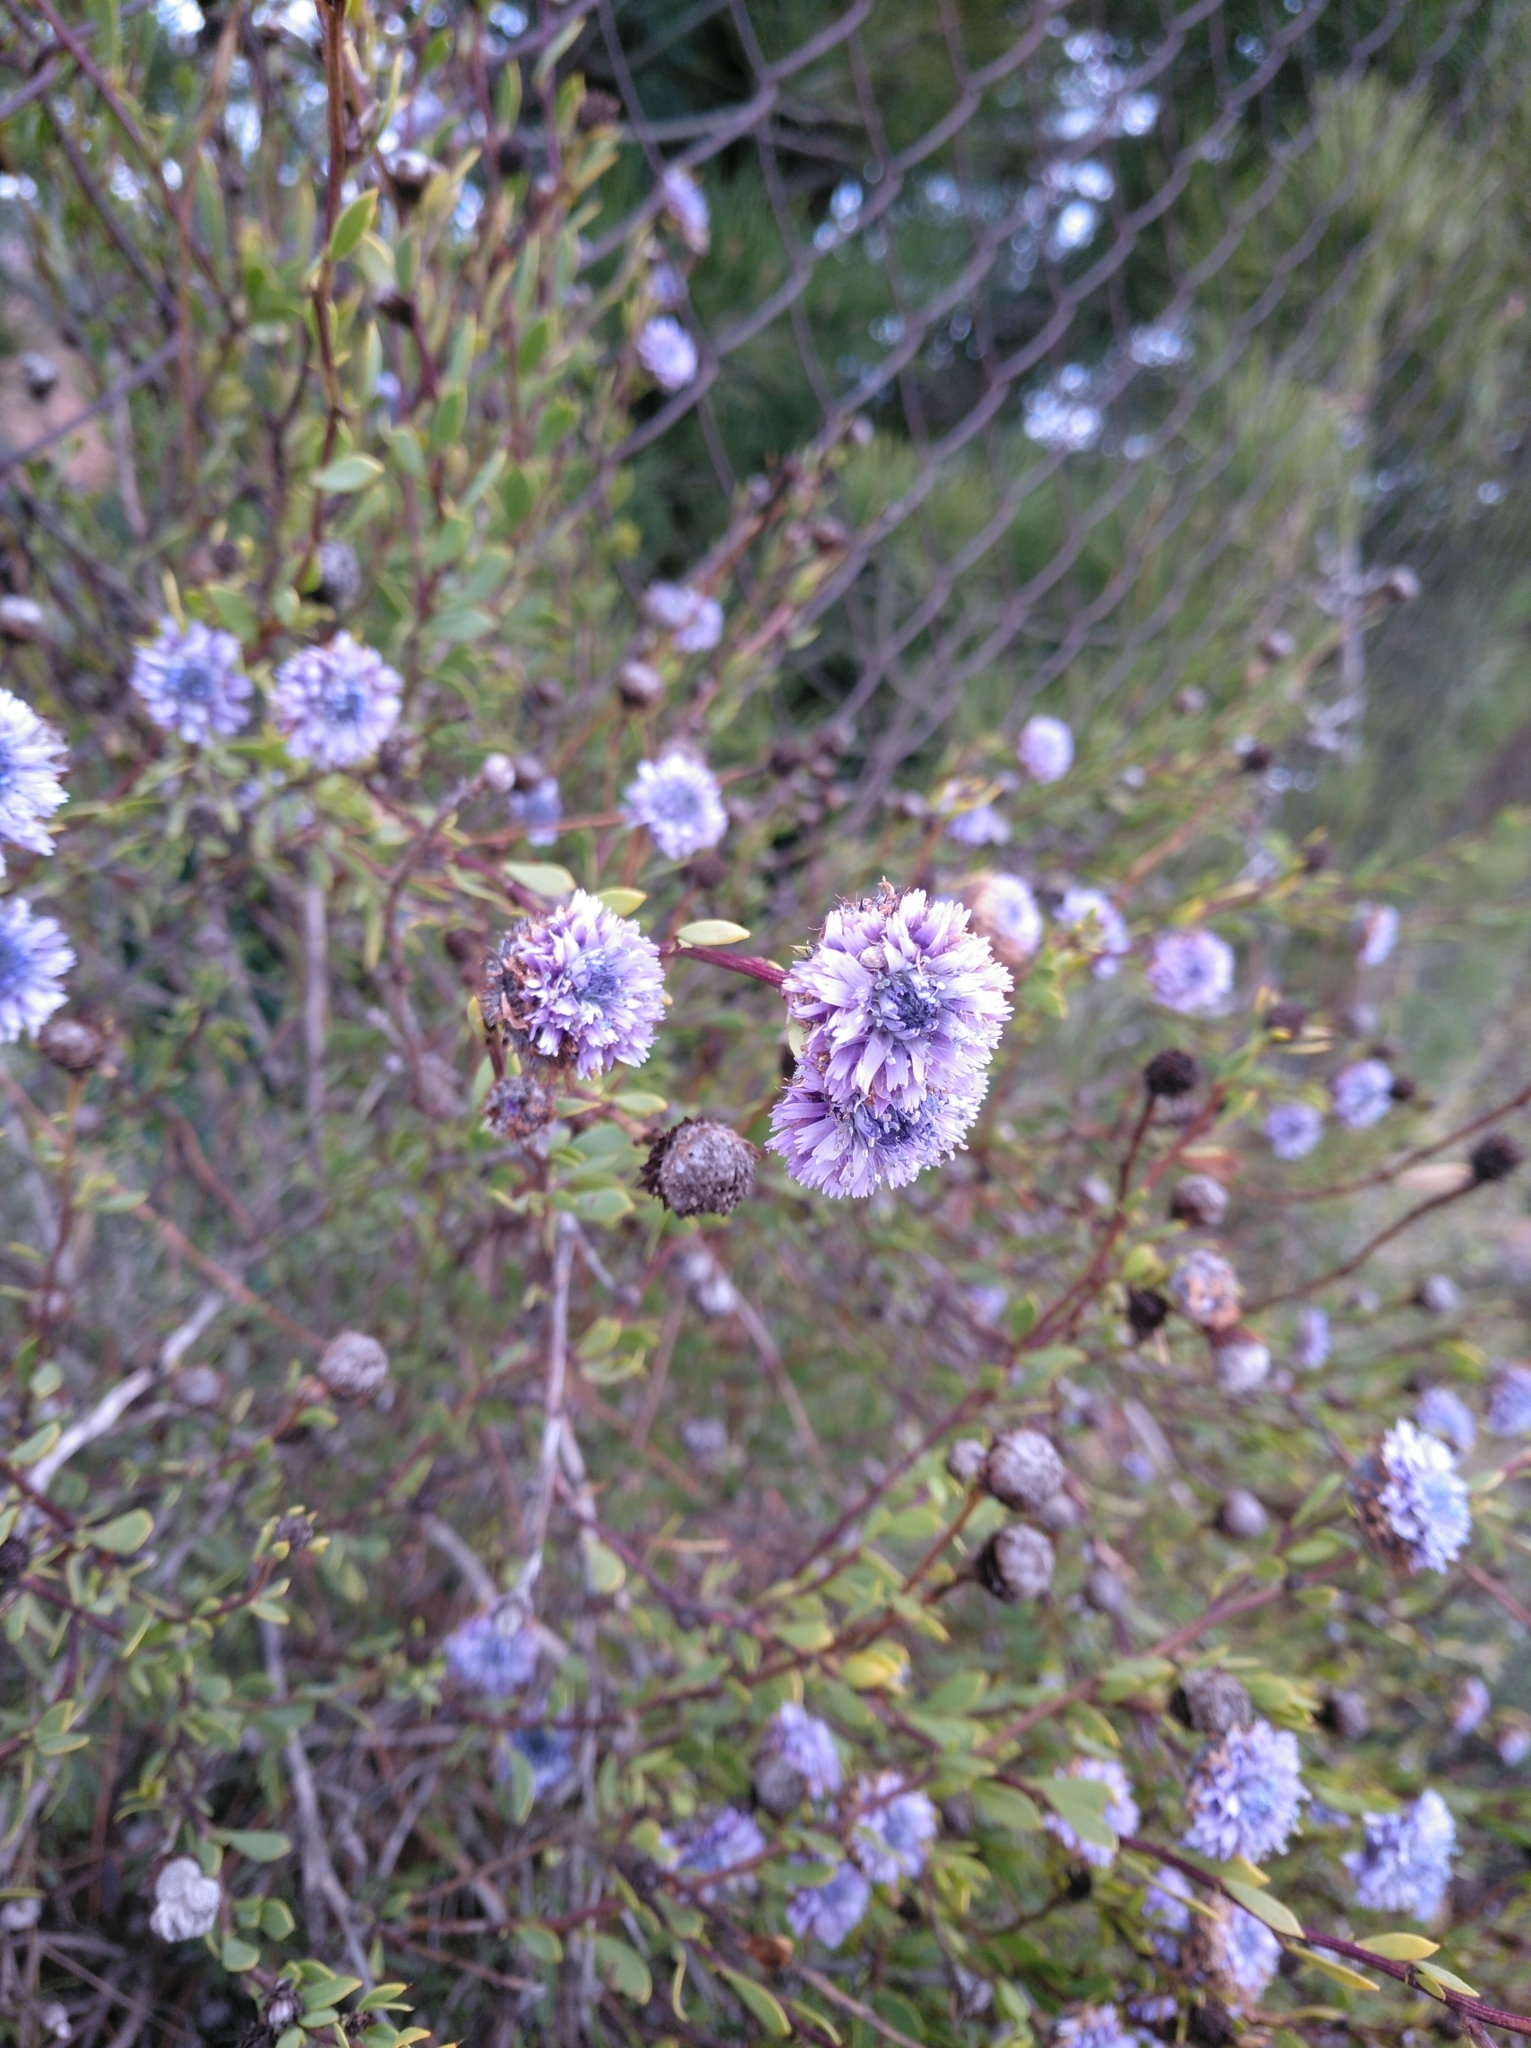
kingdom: Plantae
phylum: Tracheophyta
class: Magnoliopsida
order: Lamiales
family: Plantaginaceae
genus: Globularia
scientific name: Globularia alypum
